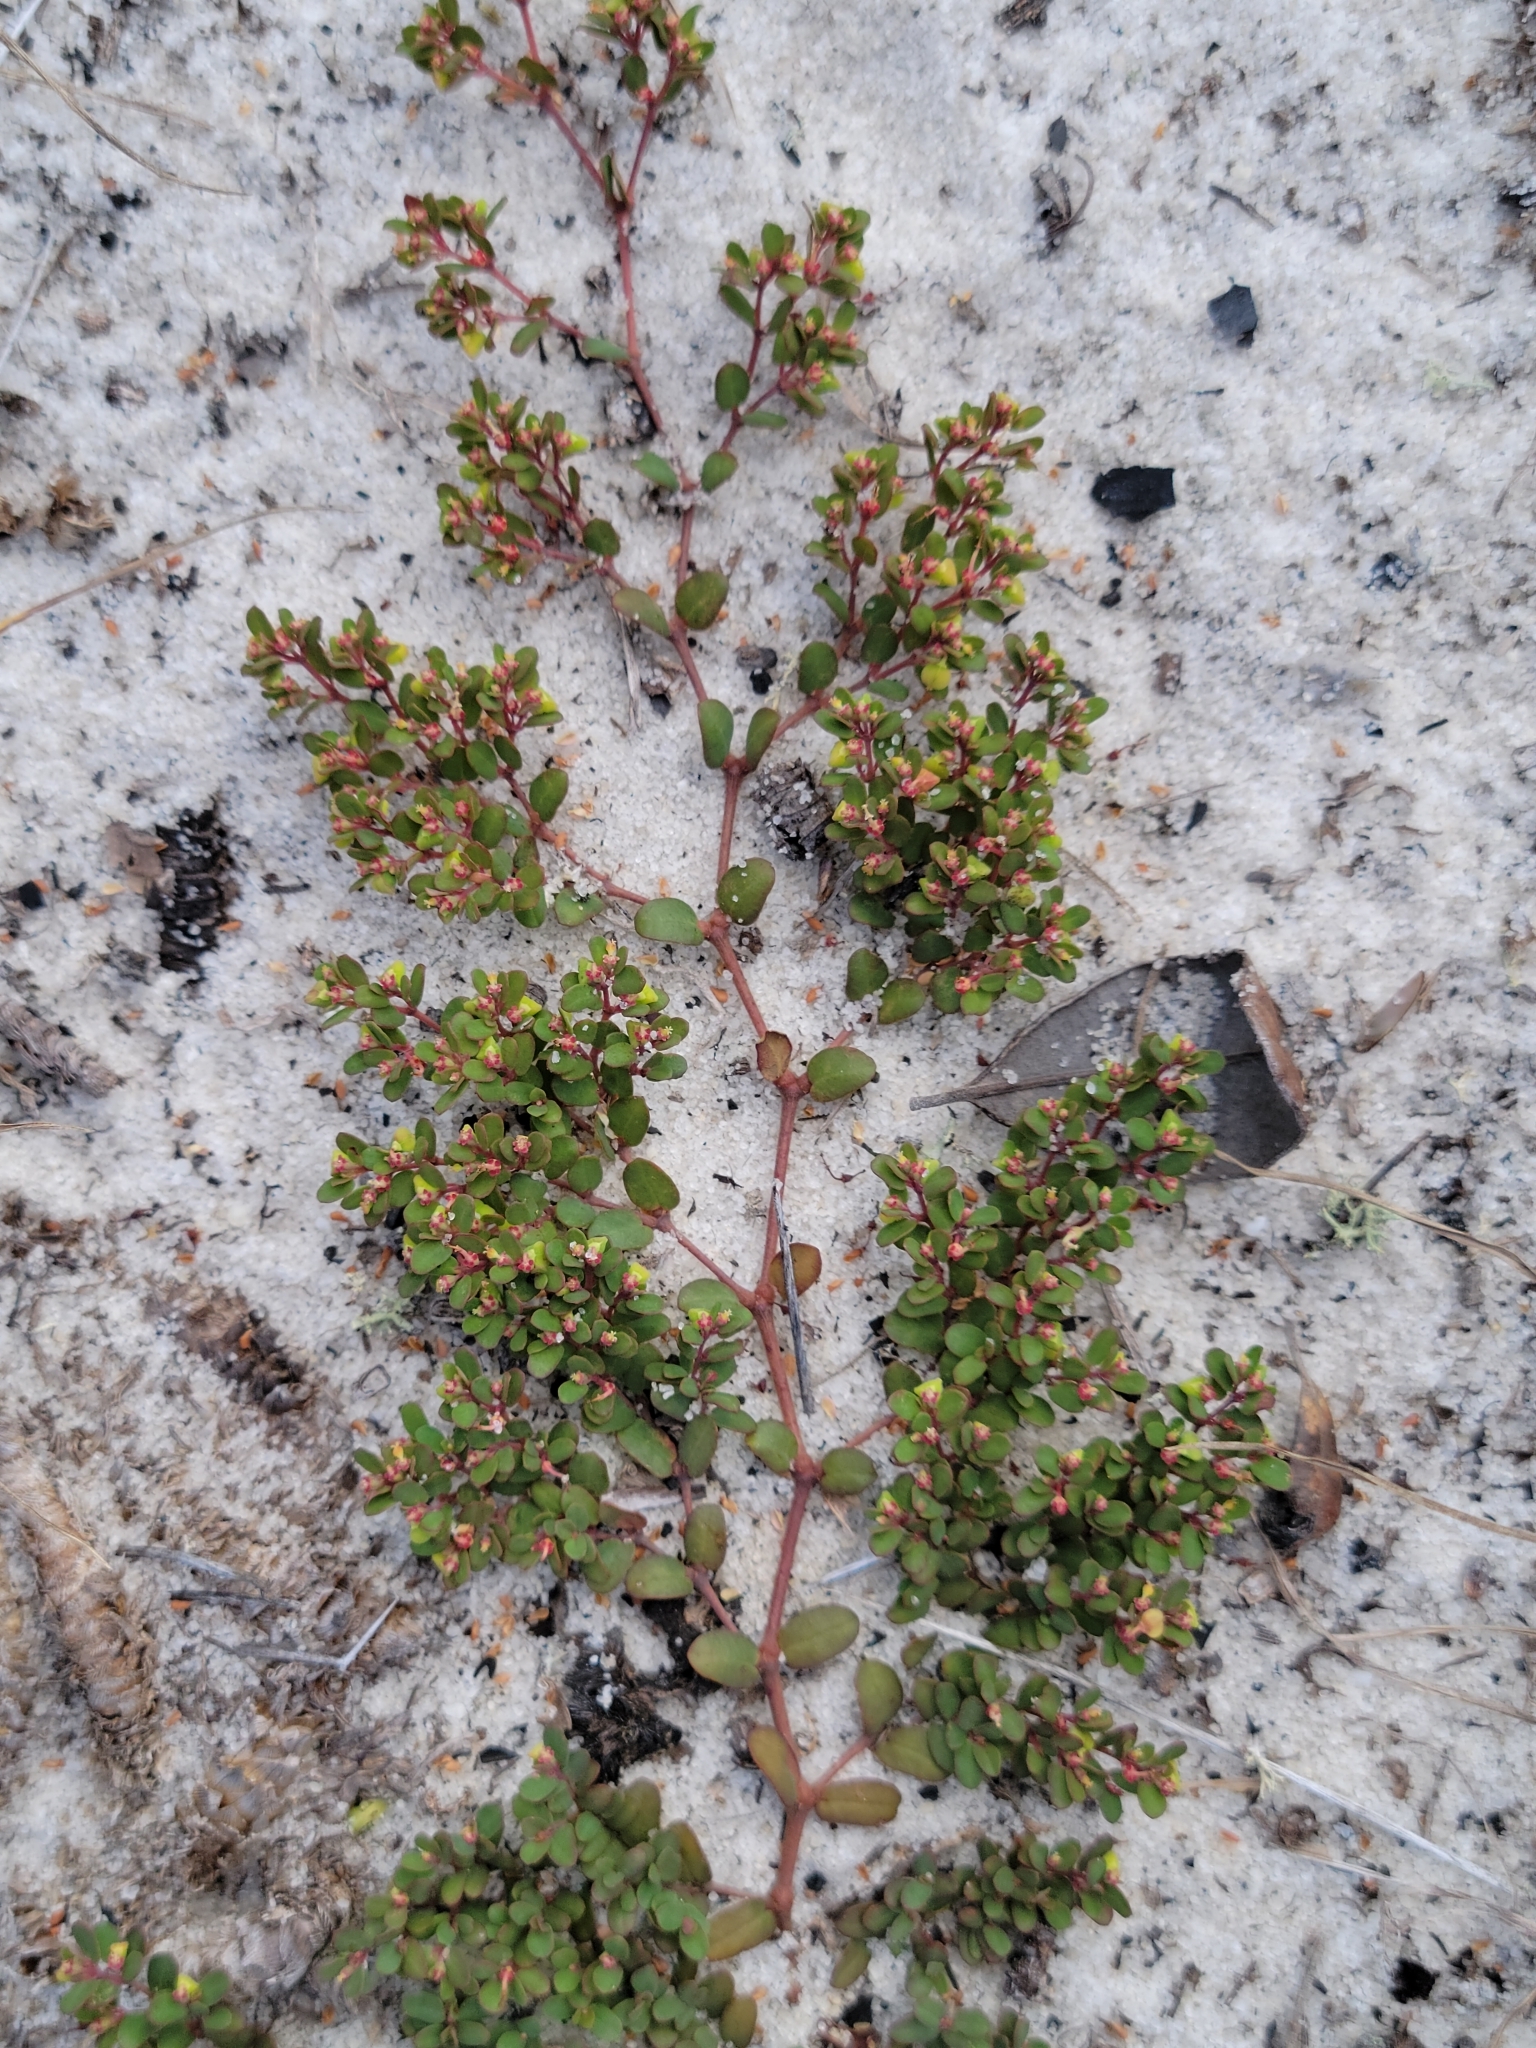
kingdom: Plantae
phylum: Tracheophyta
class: Magnoliopsida
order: Malpighiales
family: Euphorbiaceae
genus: Euphorbia
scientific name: Euphorbia cordifolia
